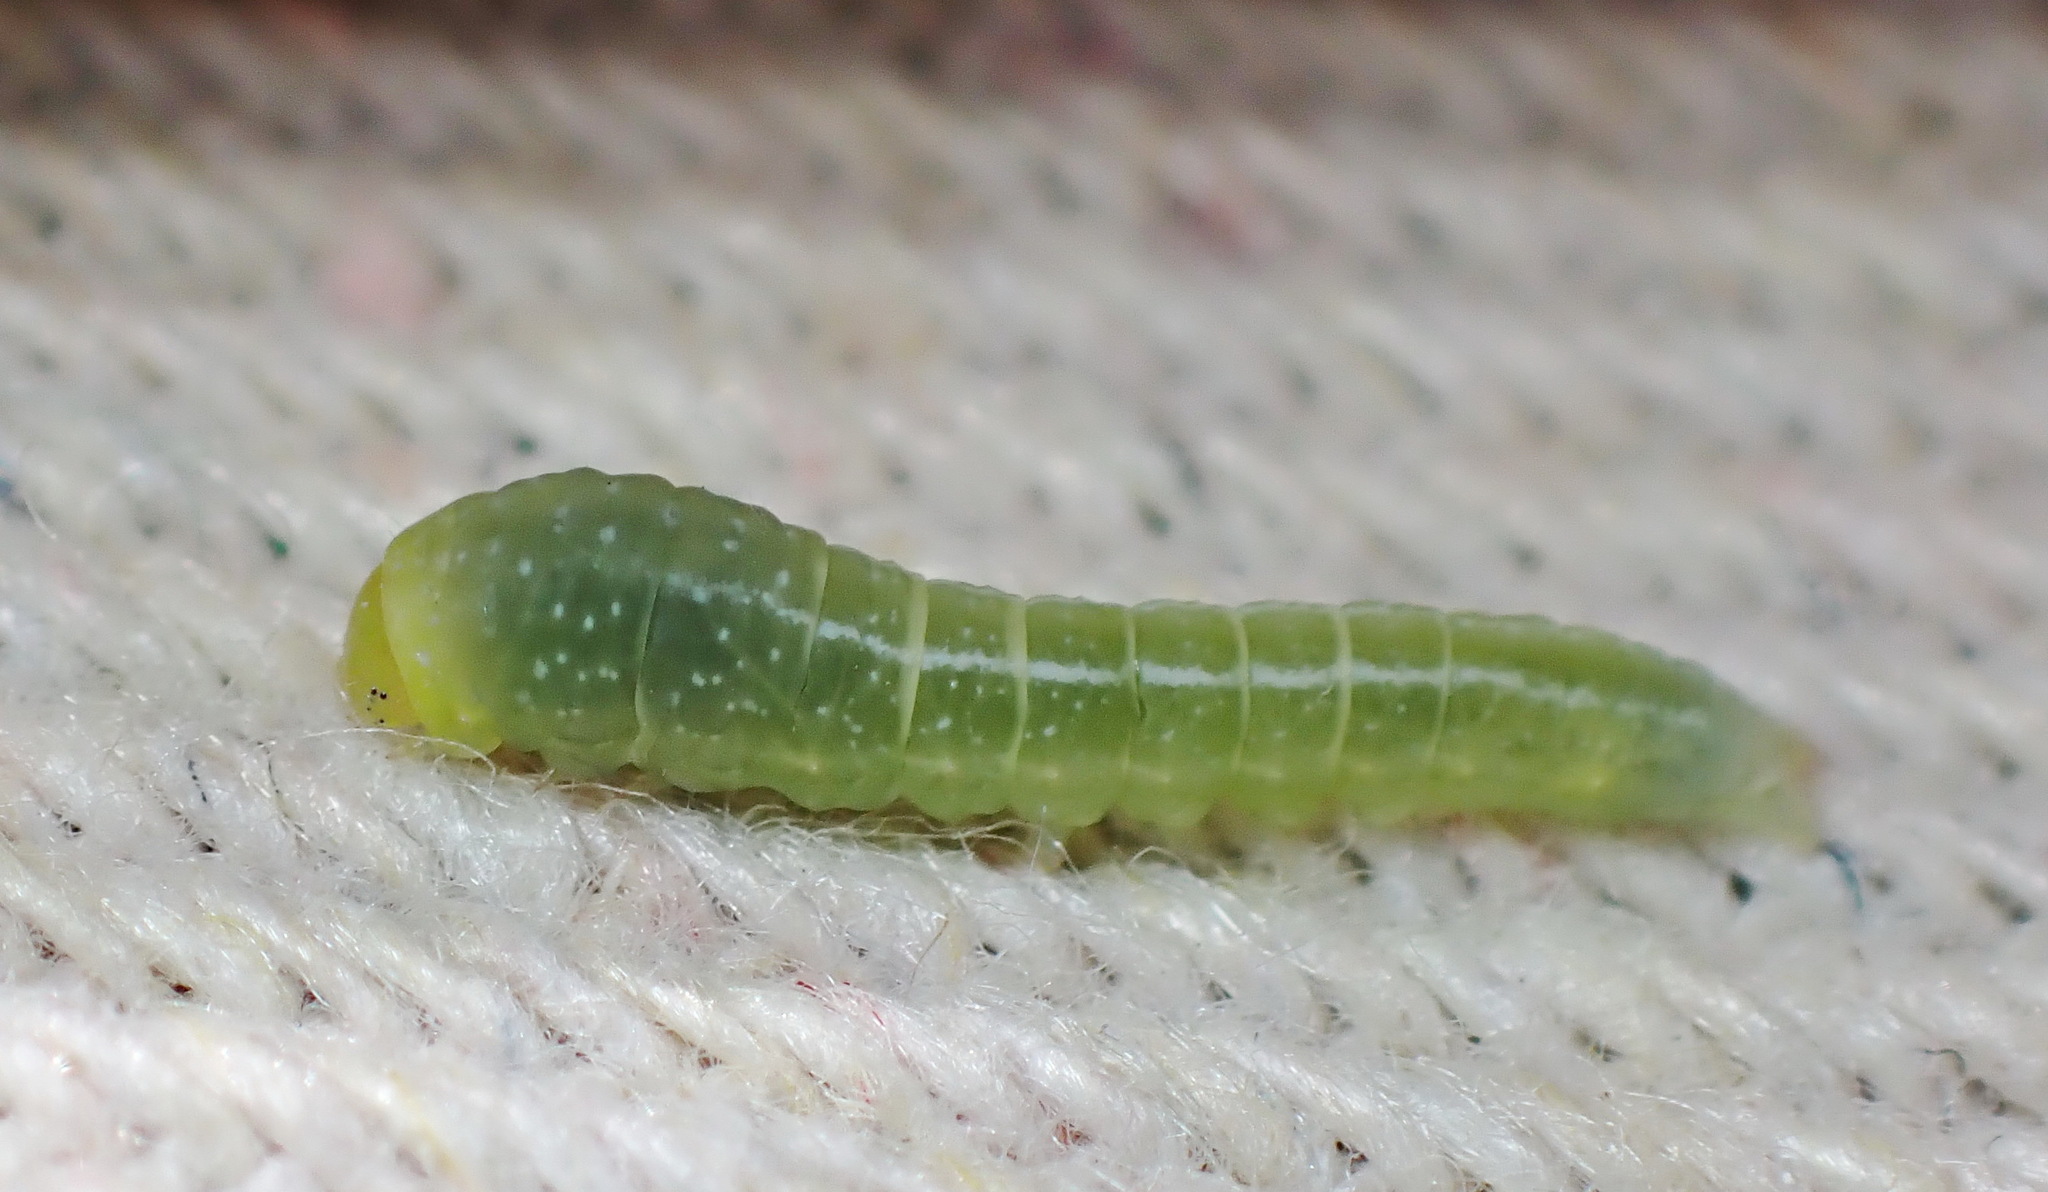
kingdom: Animalia
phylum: Arthropoda
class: Insecta
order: Lepidoptera
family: Euteliidae
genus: Marathyssa
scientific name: Marathyssa inficita
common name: Dark marathyssa moth
